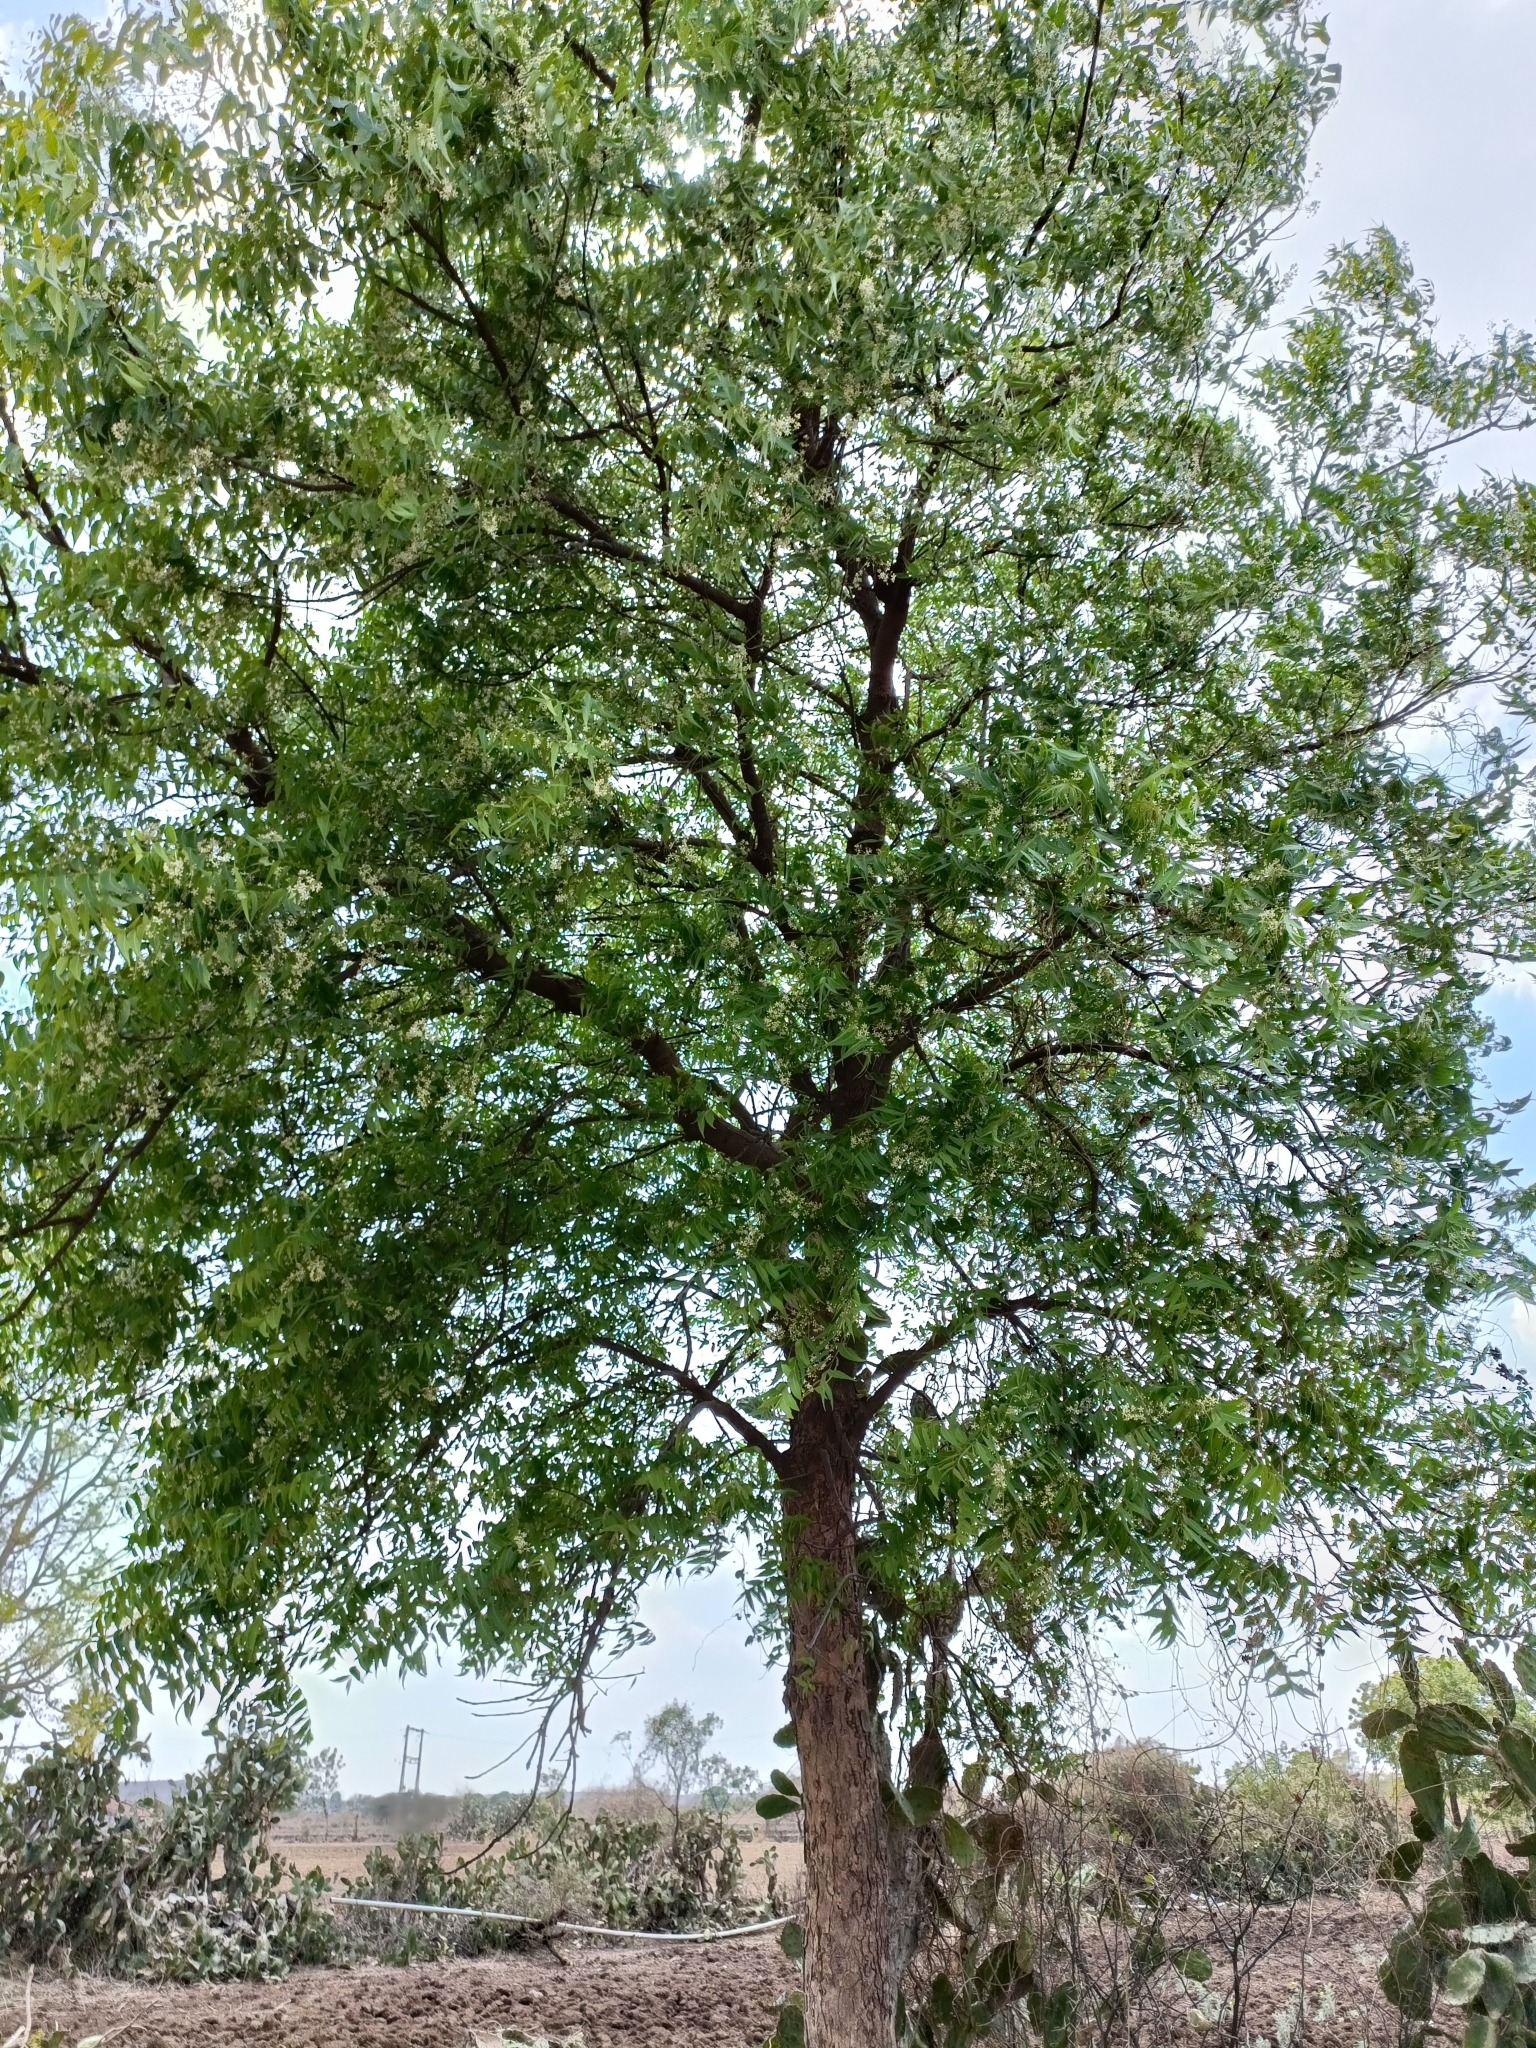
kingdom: Plantae
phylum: Tracheophyta
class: Magnoliopsida
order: Sapindales
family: Meliaceae
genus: Azadirachta
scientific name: Azadirachta indica
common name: Neem
